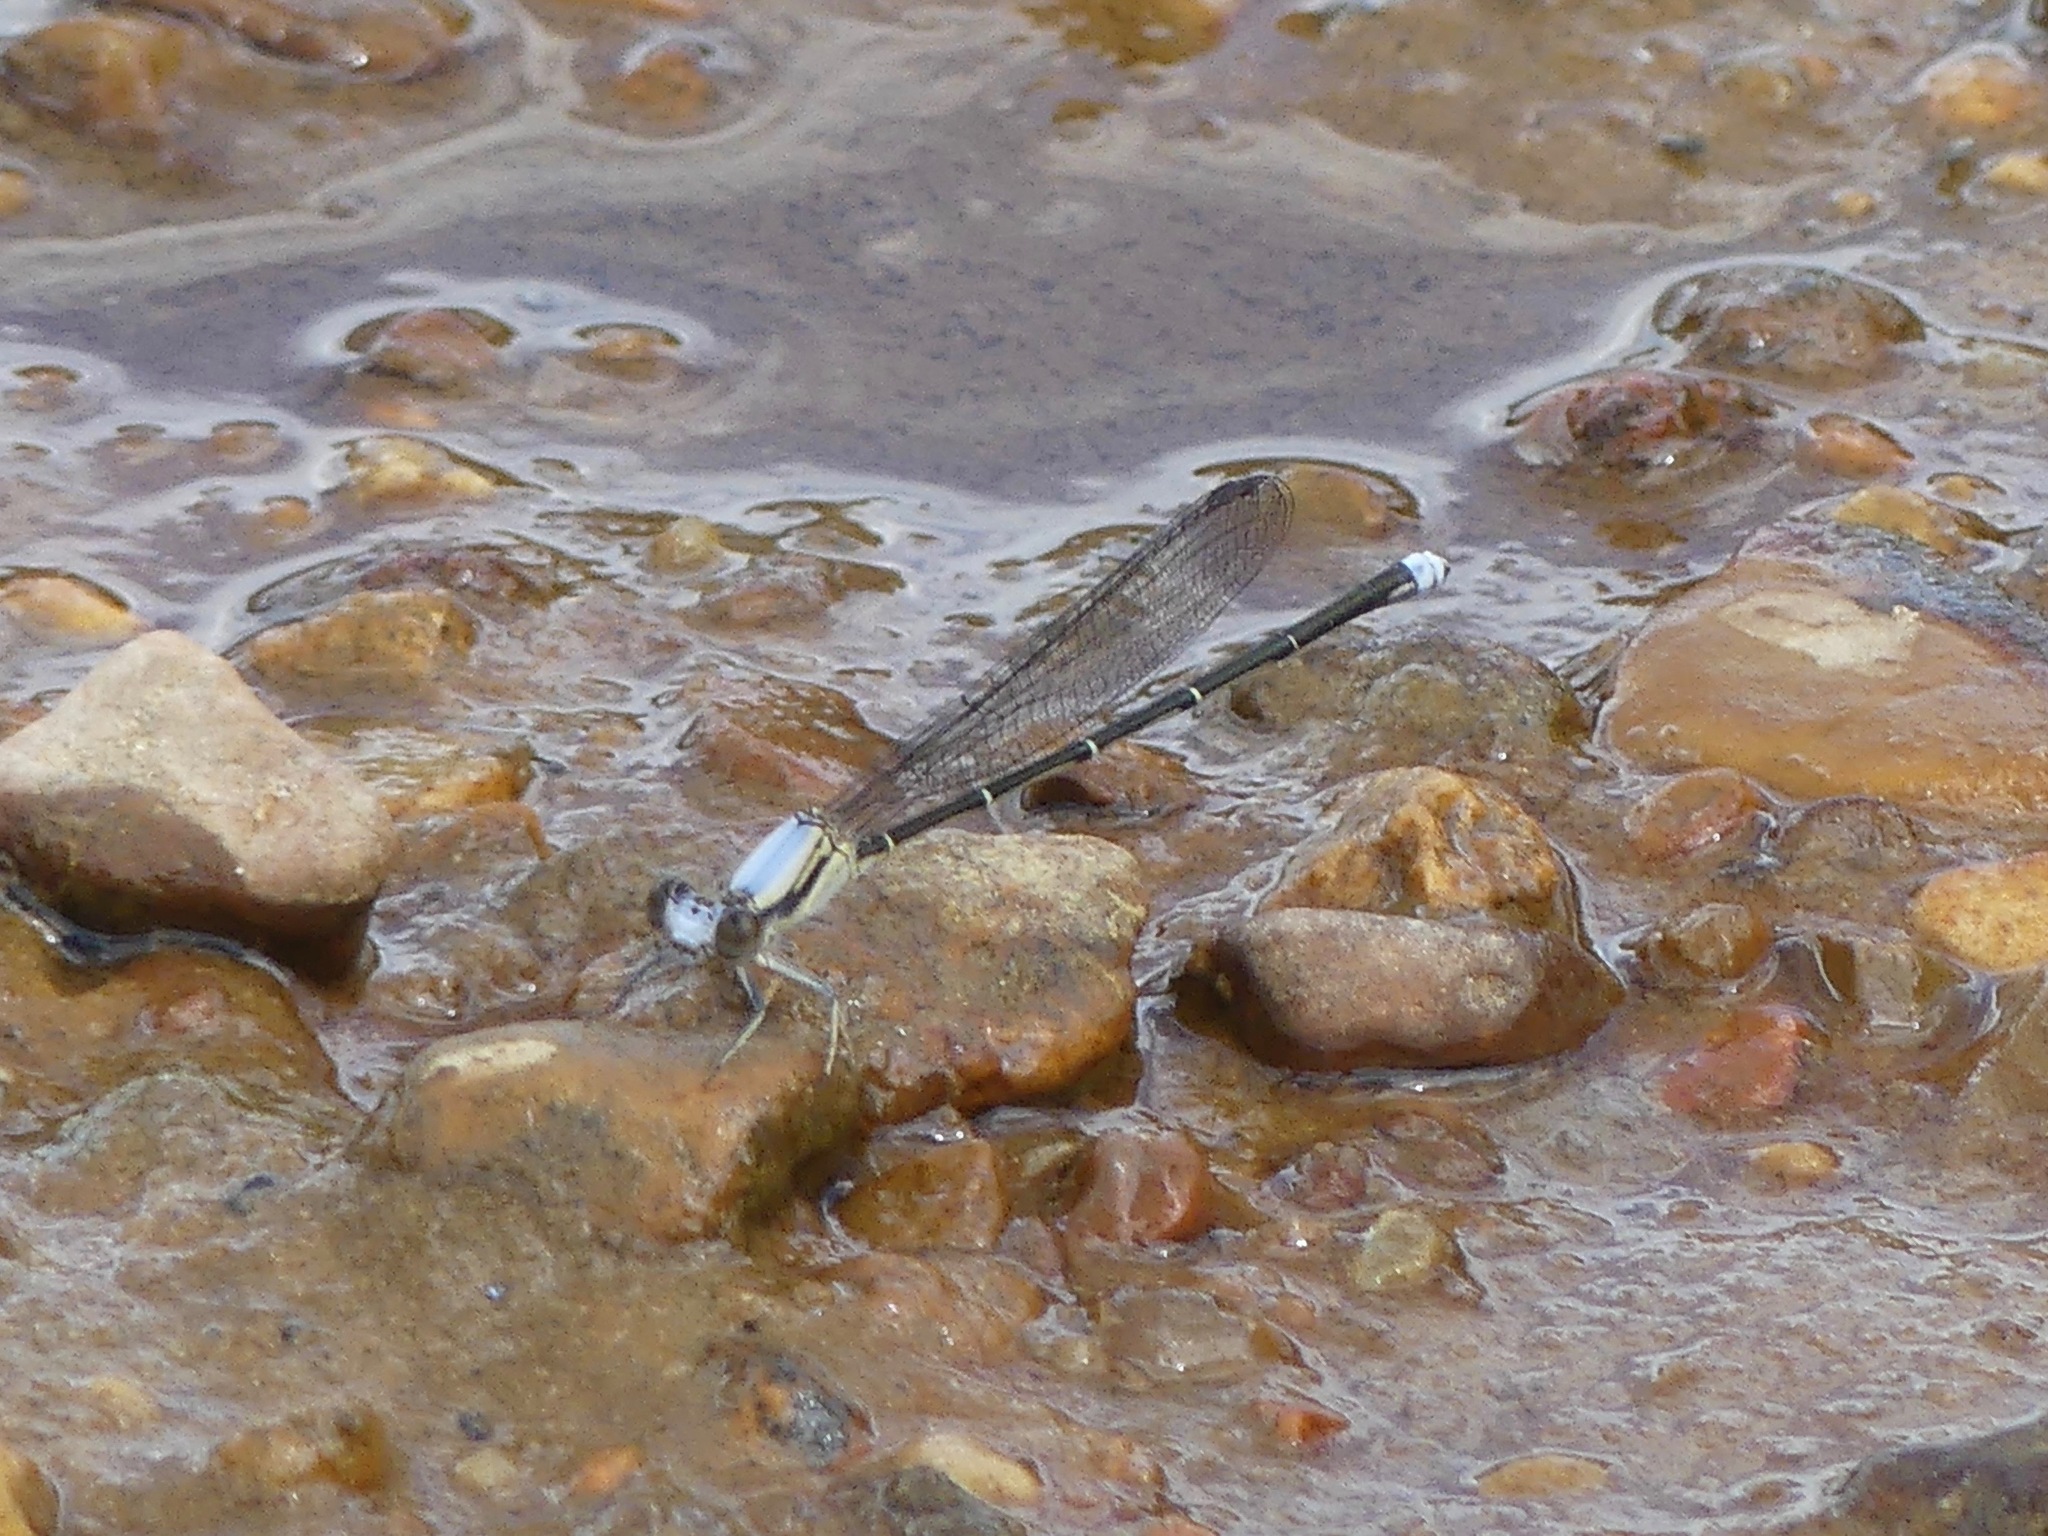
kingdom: Animalia
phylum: Arthropoda
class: Insecta
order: Odonata
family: Coenagrionidae
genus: Argia
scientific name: Argia moesta
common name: Powdered dancer
